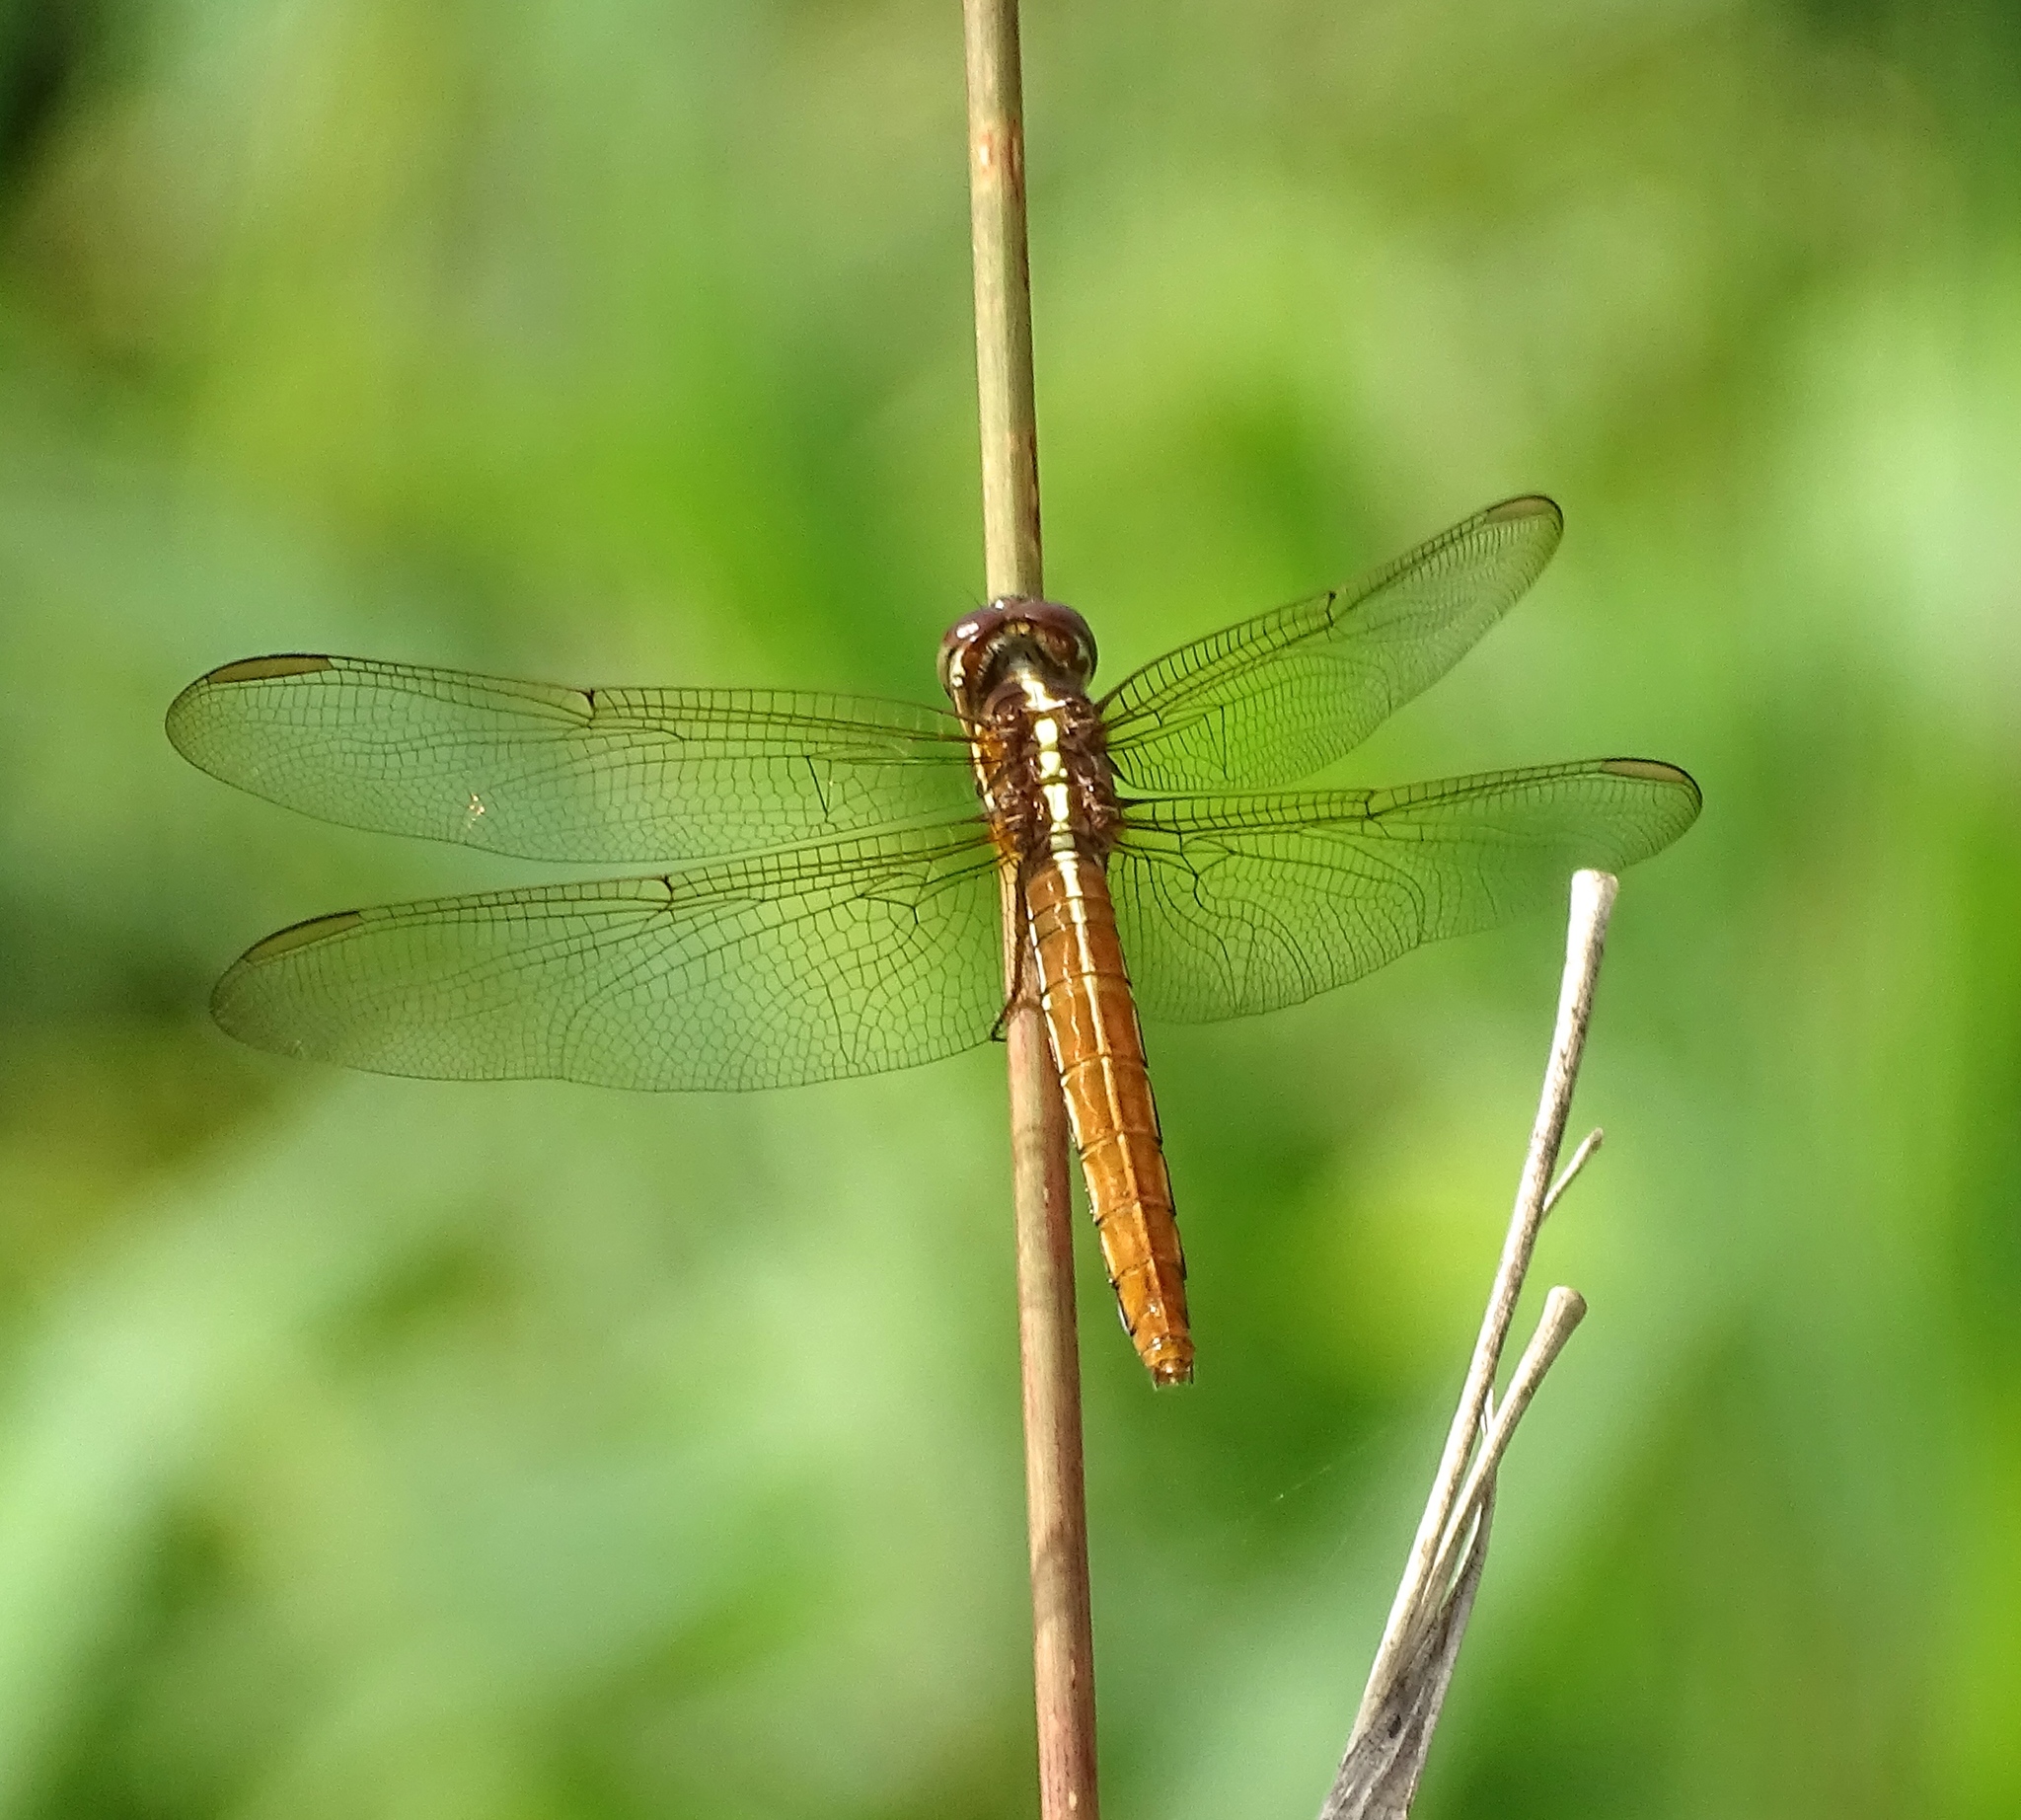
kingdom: Animalia
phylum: Arthropoda
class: Insecta
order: Odonata
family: Libellulidae
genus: Orthemis
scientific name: Orthemis aequilibris
